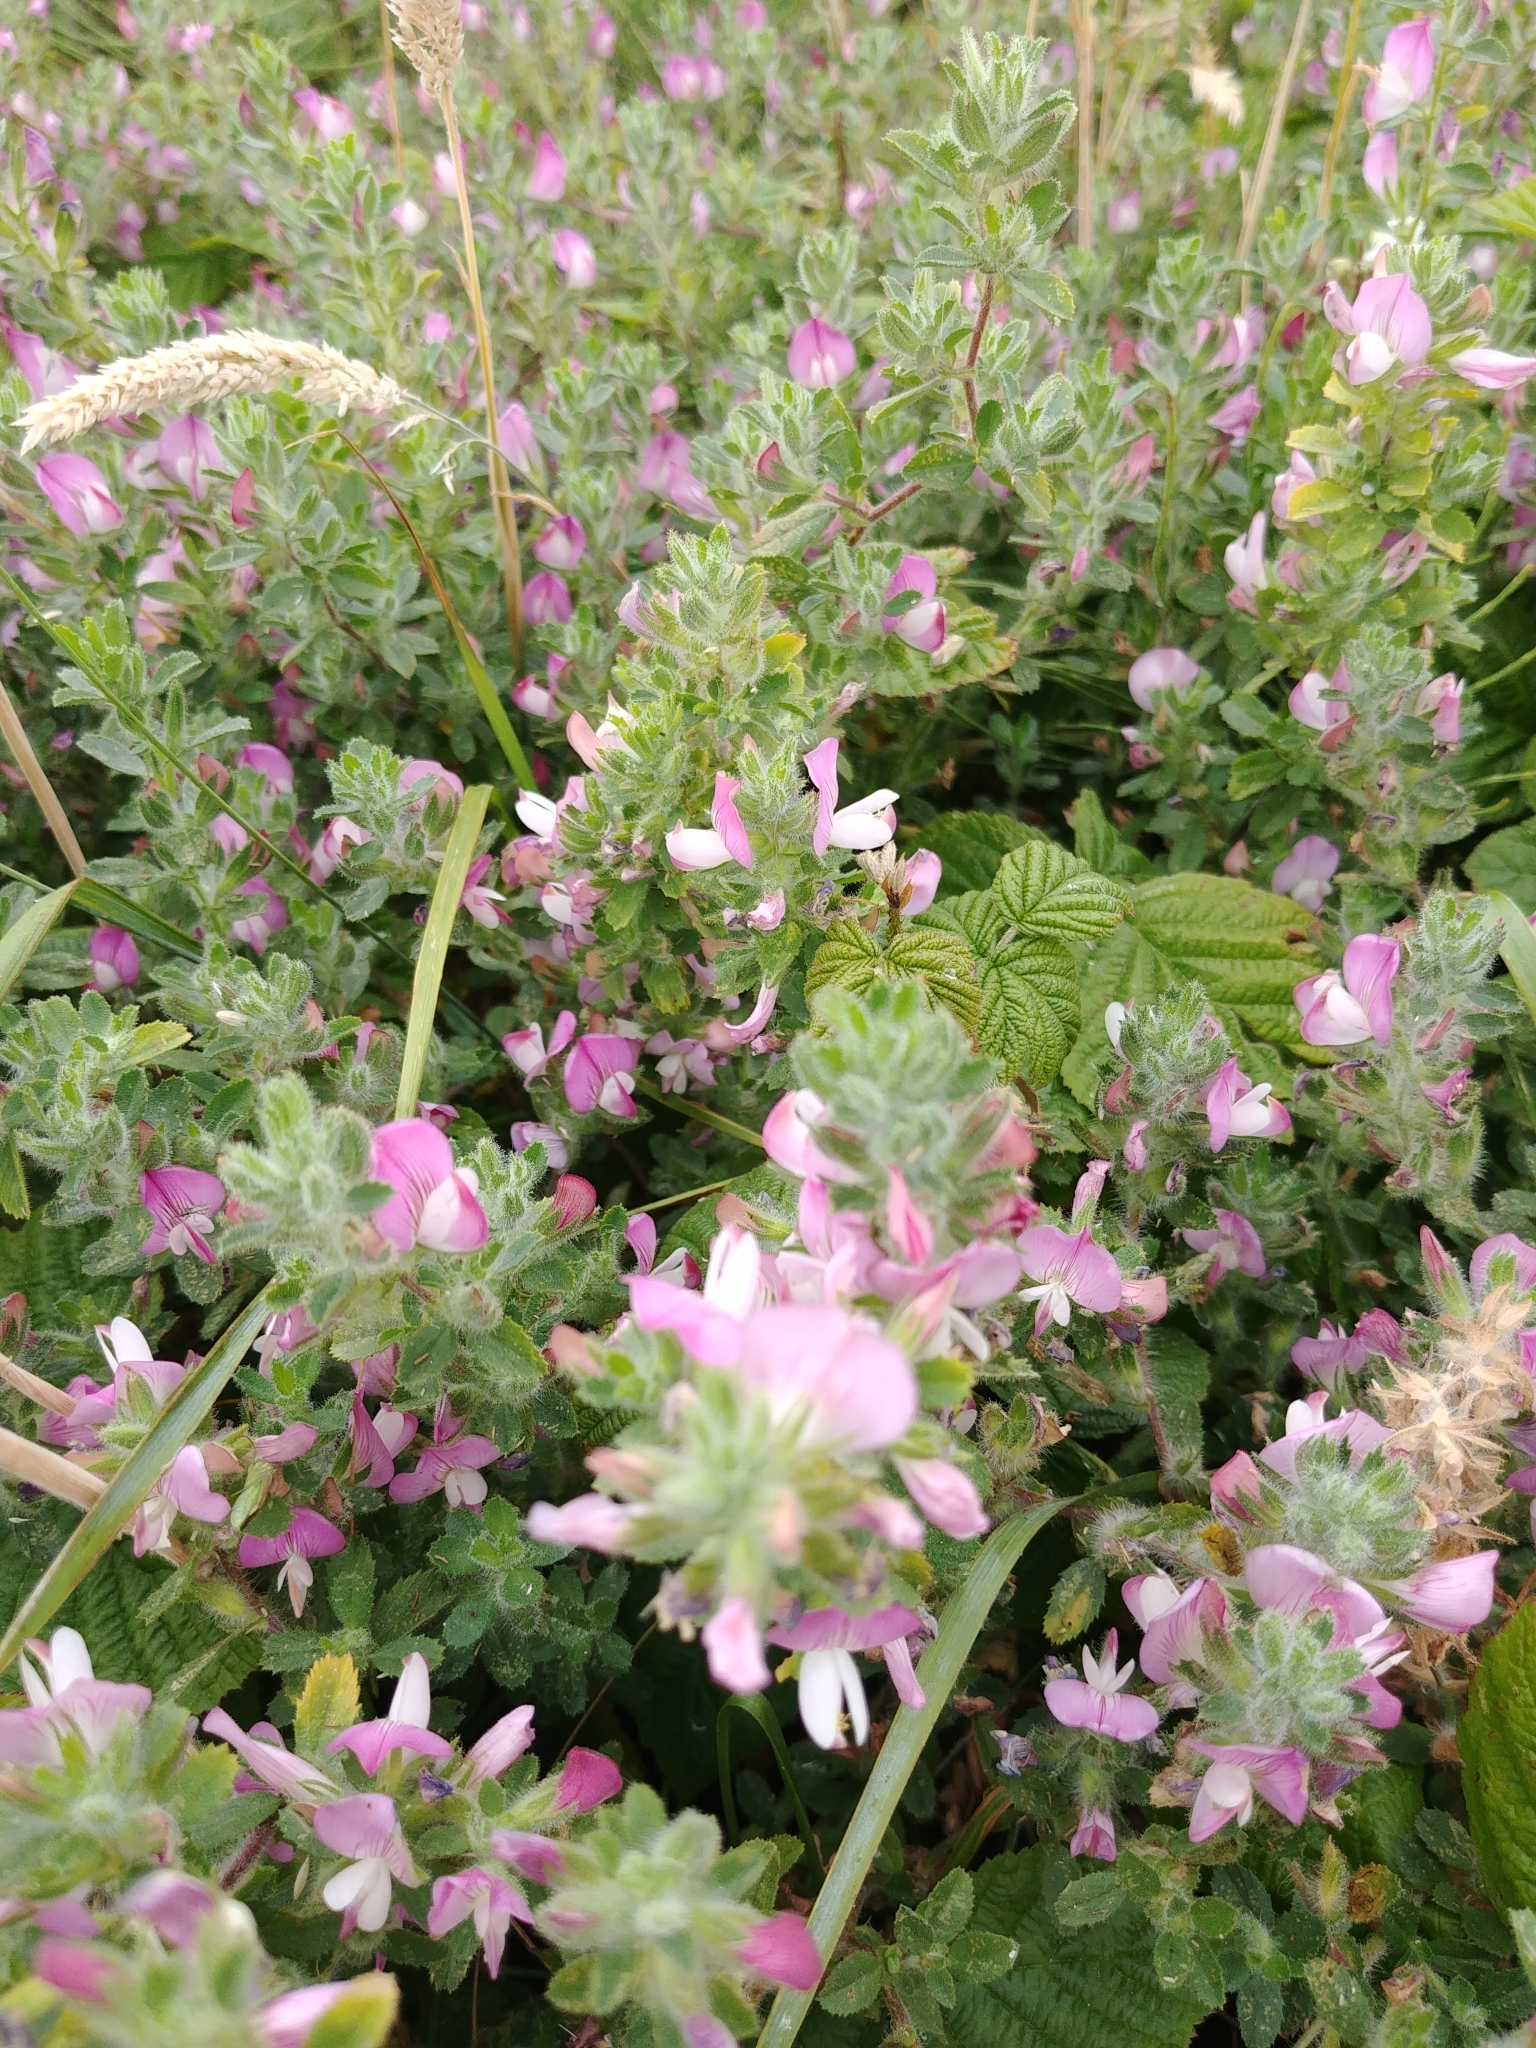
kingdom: Plantae
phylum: Tracheophyta
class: Magnoliopsida
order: Fabales
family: Fabaceae
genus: Ononis
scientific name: Ononis spinosa
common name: Spiny restharrow
